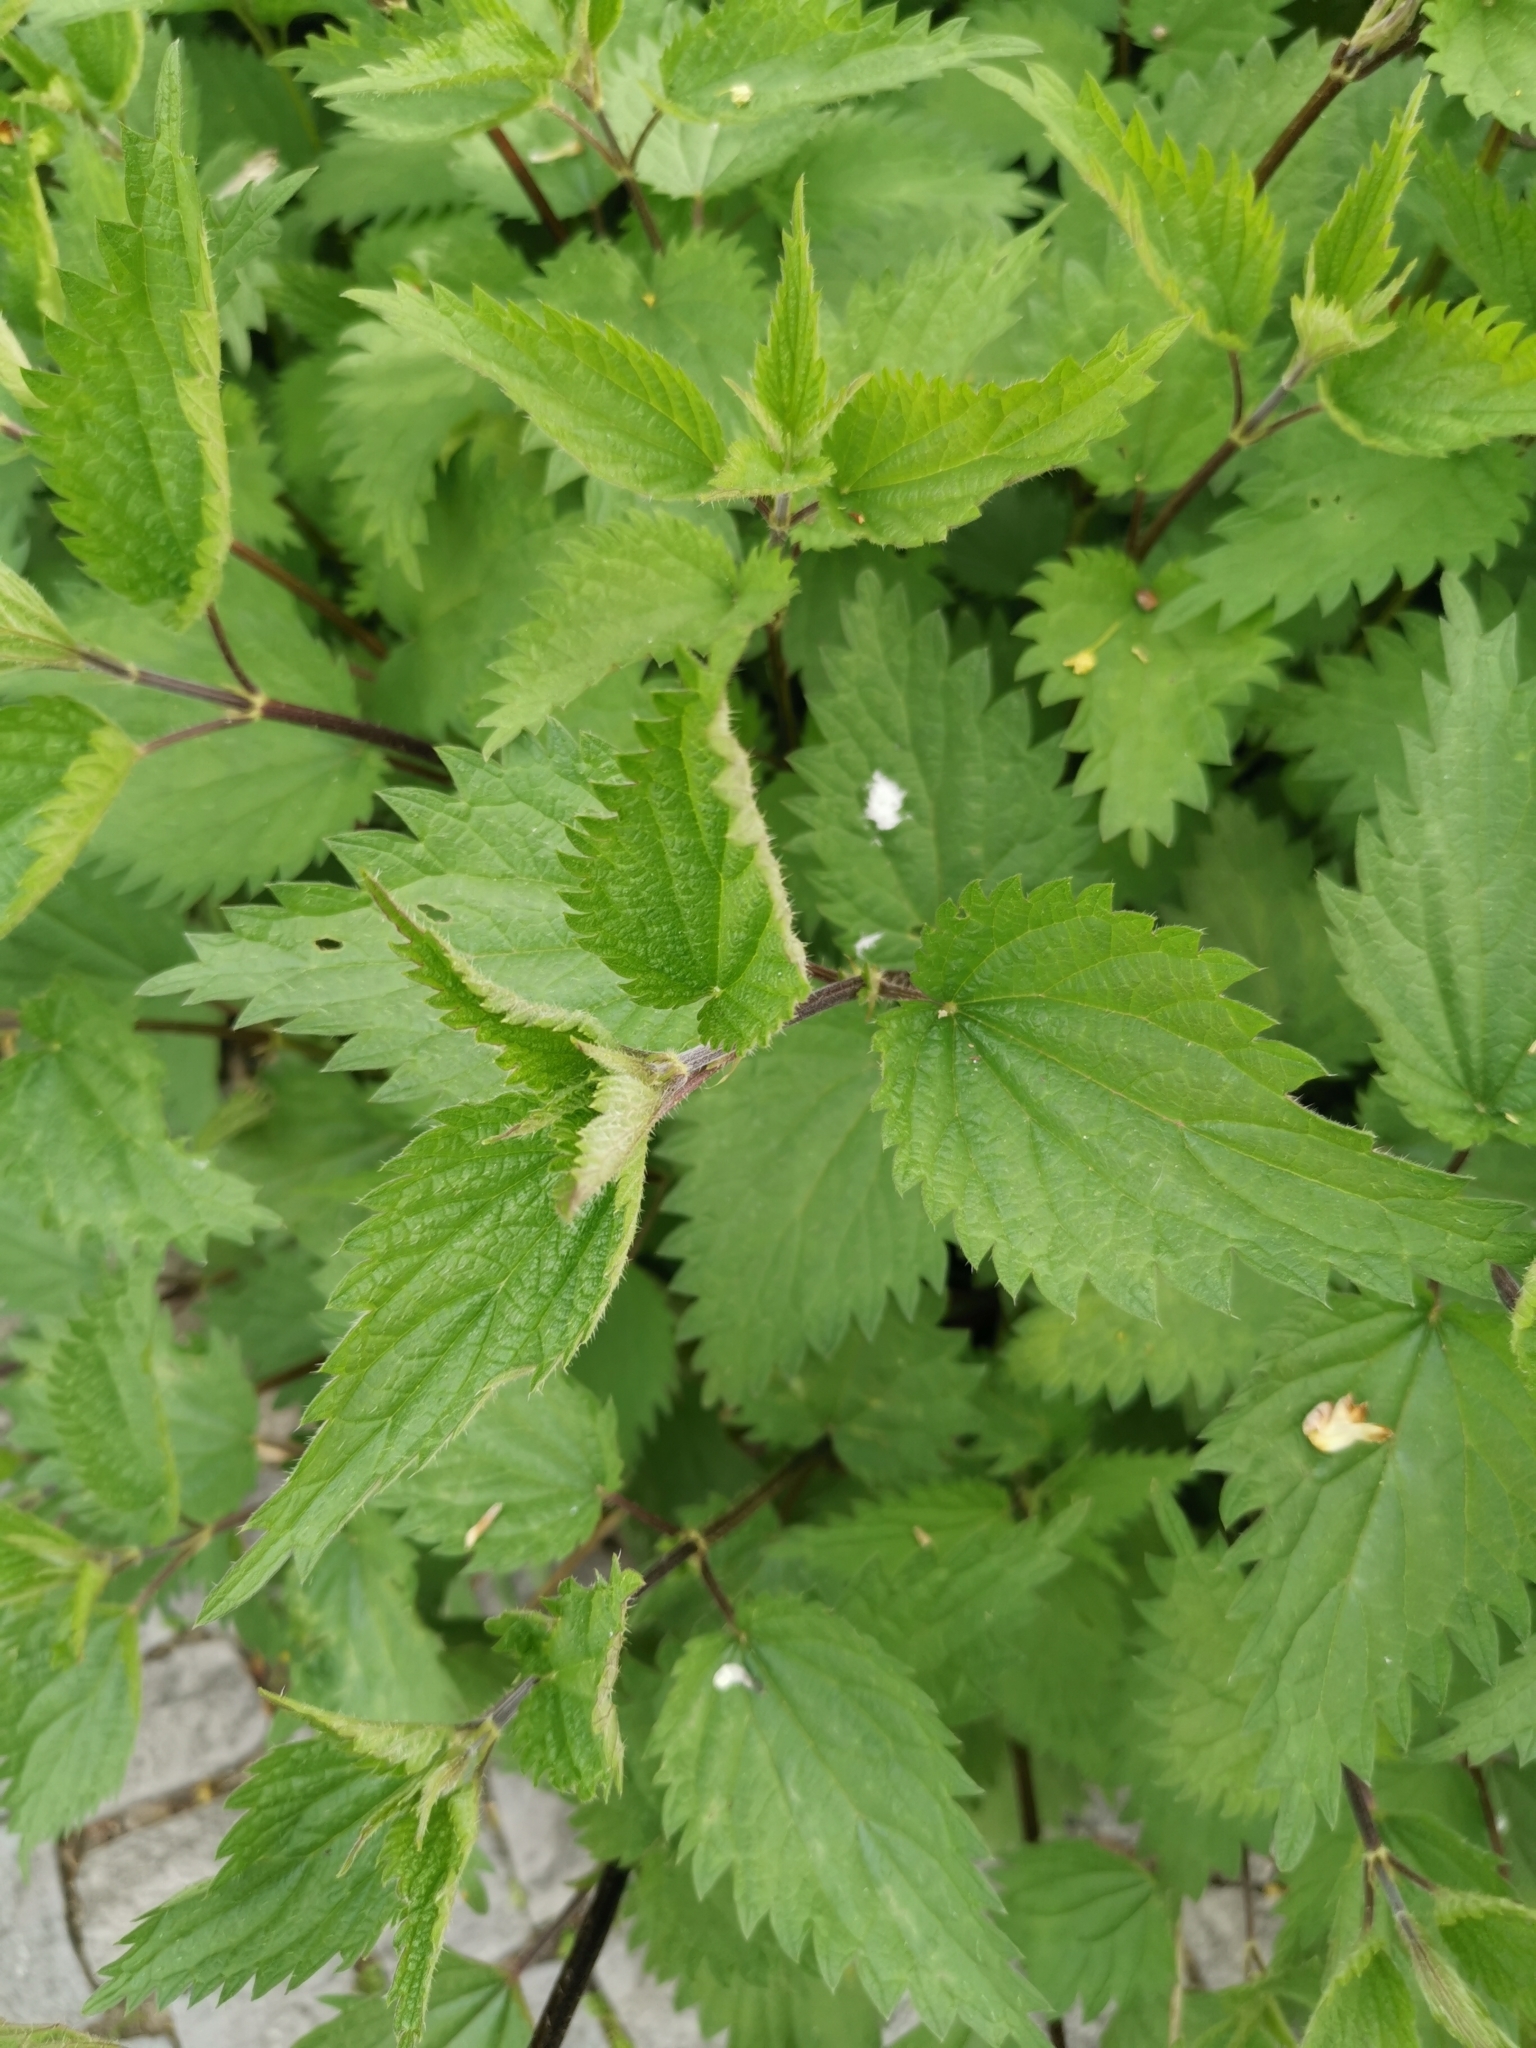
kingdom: Plantae
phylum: Tracheophyta
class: Magnoliopsida
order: Rosales
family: Urticaceae
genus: Urtica
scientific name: Urtica dioica
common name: Common nettle
